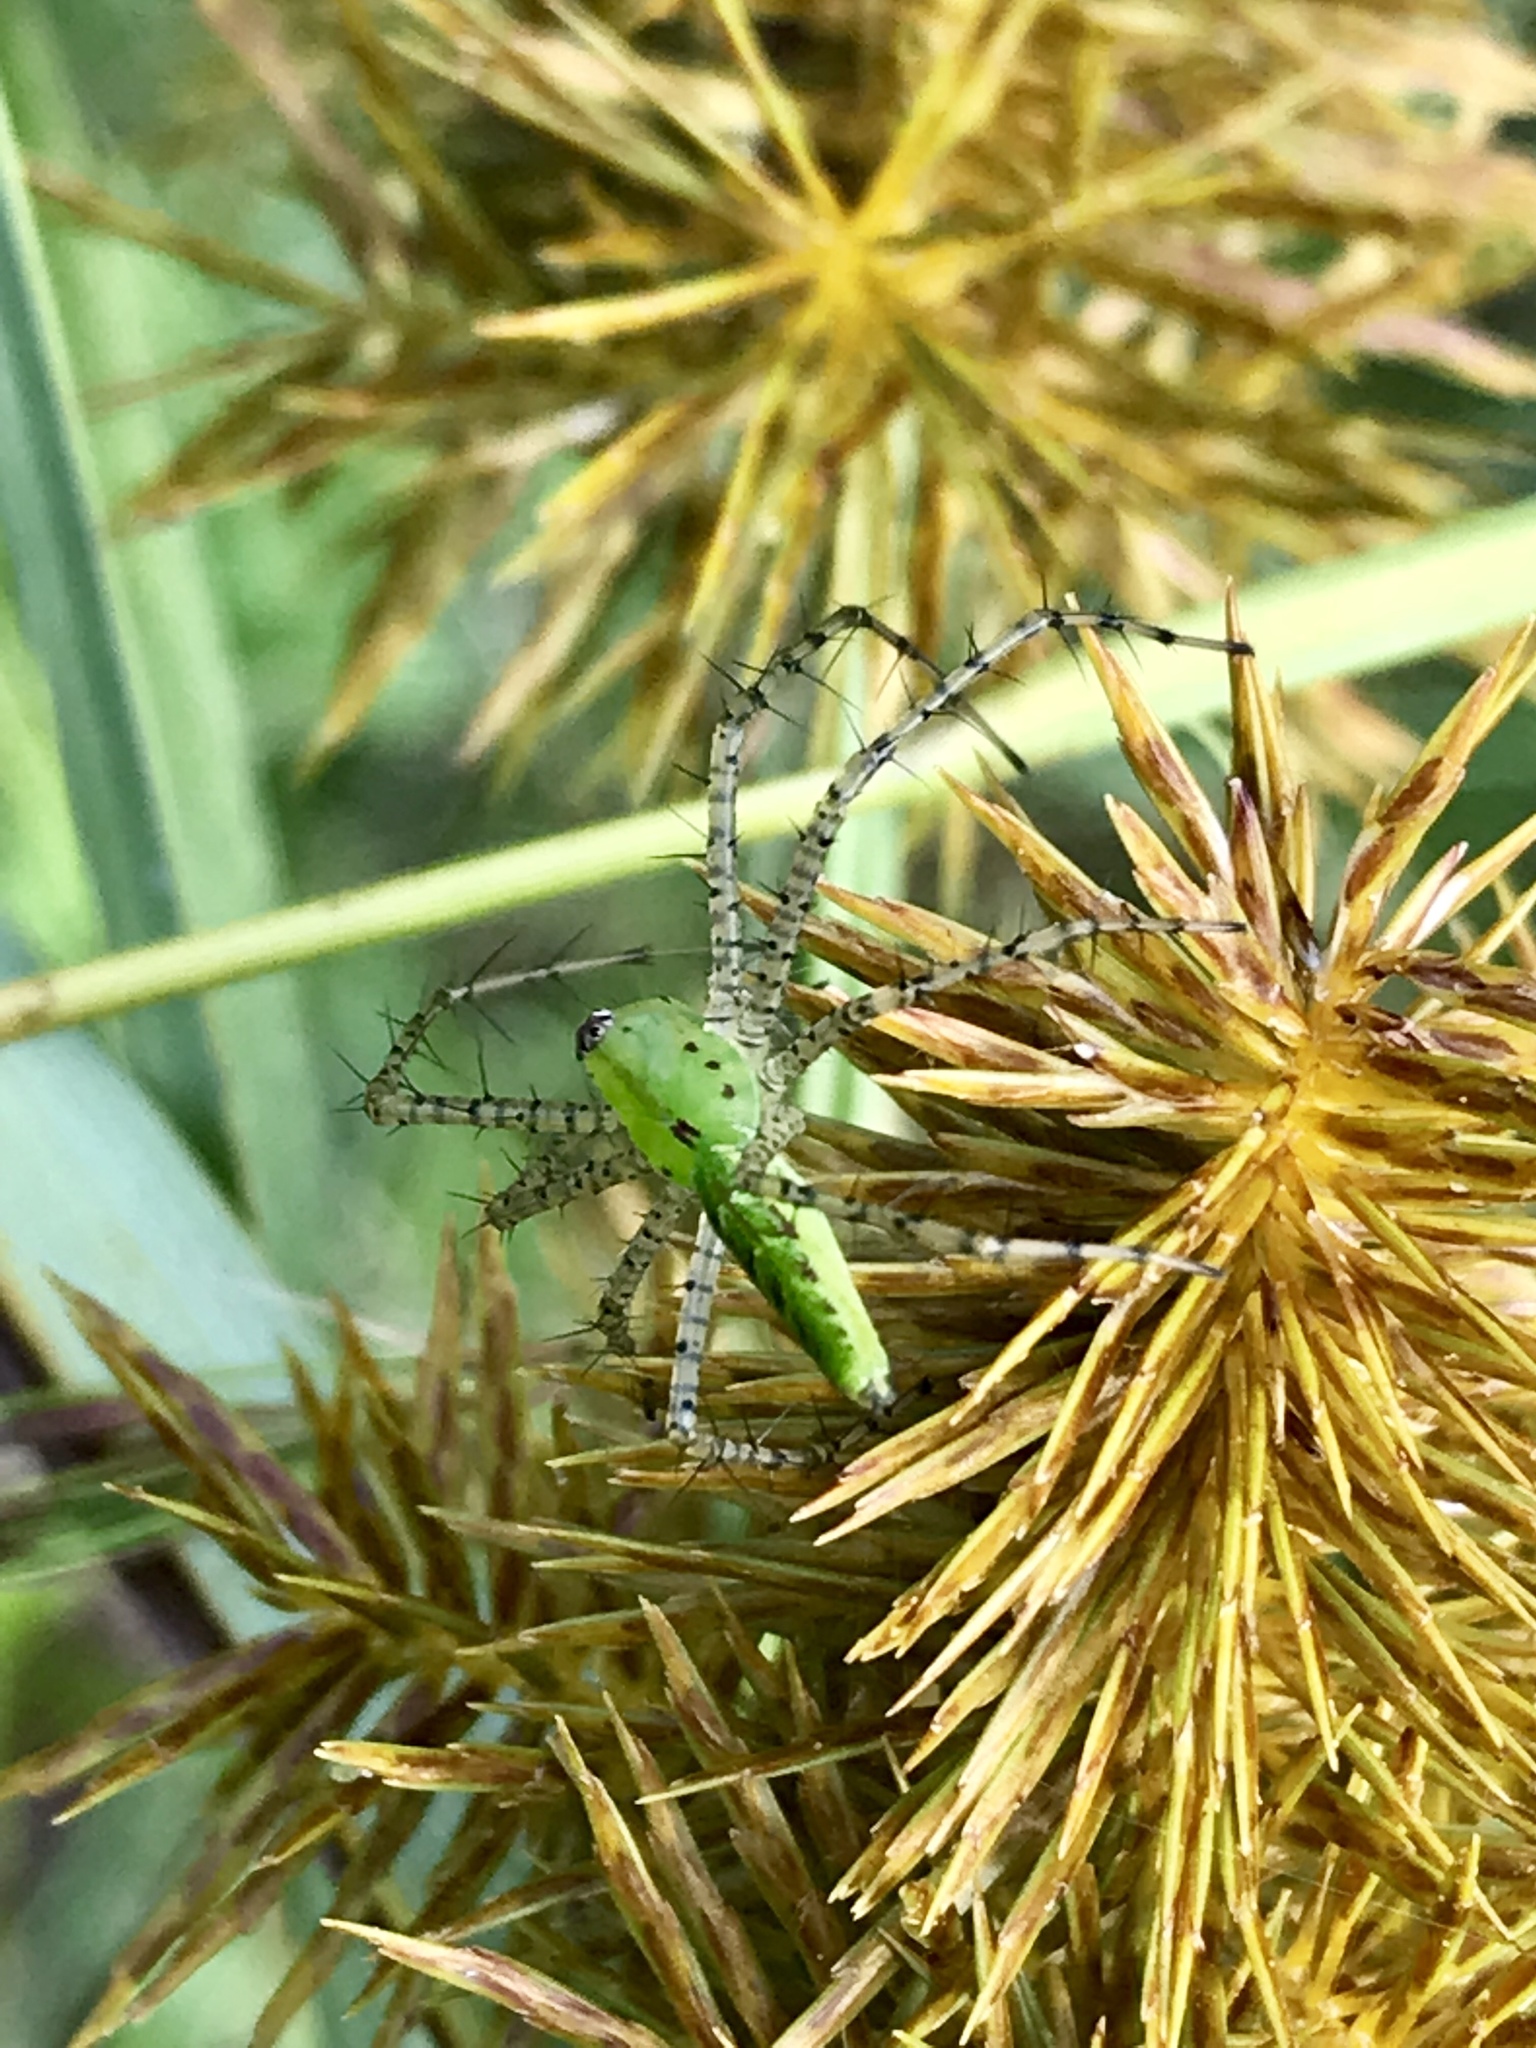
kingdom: Animalia
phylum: Arthropoda
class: Arachnida
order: Araneae
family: Oxyopidae
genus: Peucetia
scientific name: Peucetia viridans
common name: Lynx spiders
